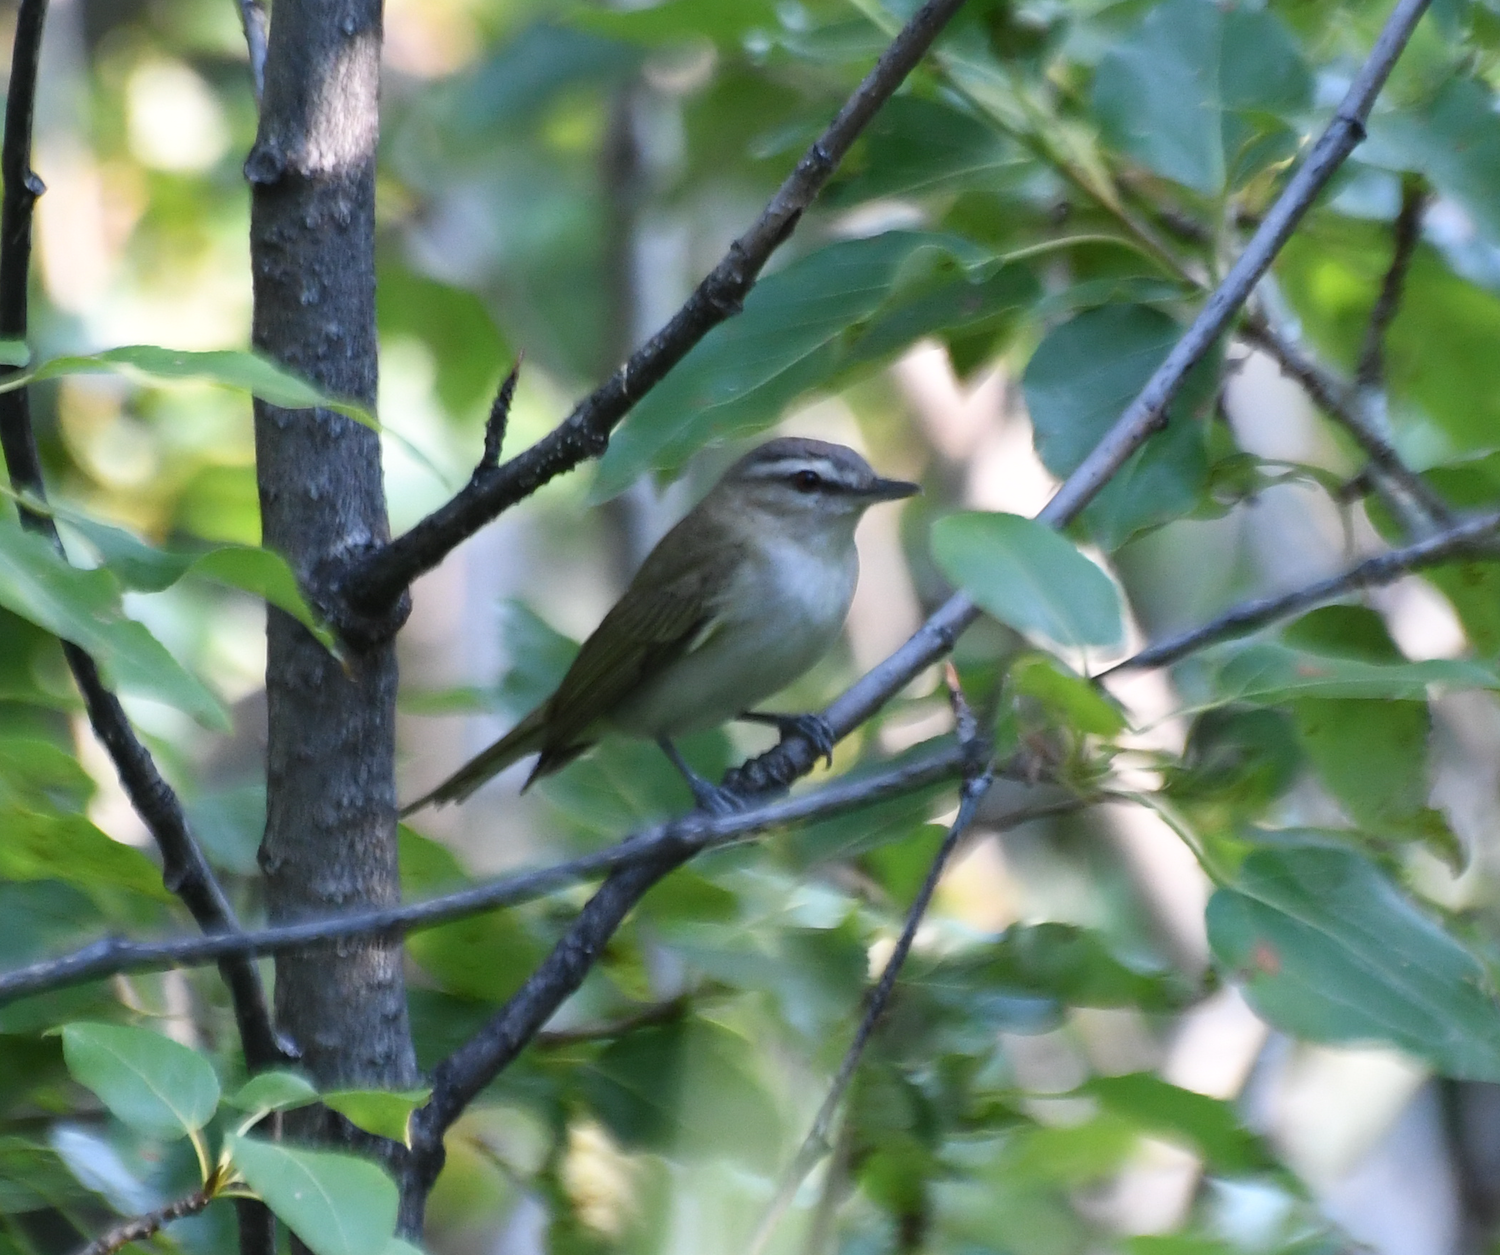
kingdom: Animalia
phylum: Chordata
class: Aves
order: Passeriformes
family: Vireonidae
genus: Vireo
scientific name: Vireo olivaceus
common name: Red-eyed vireo
